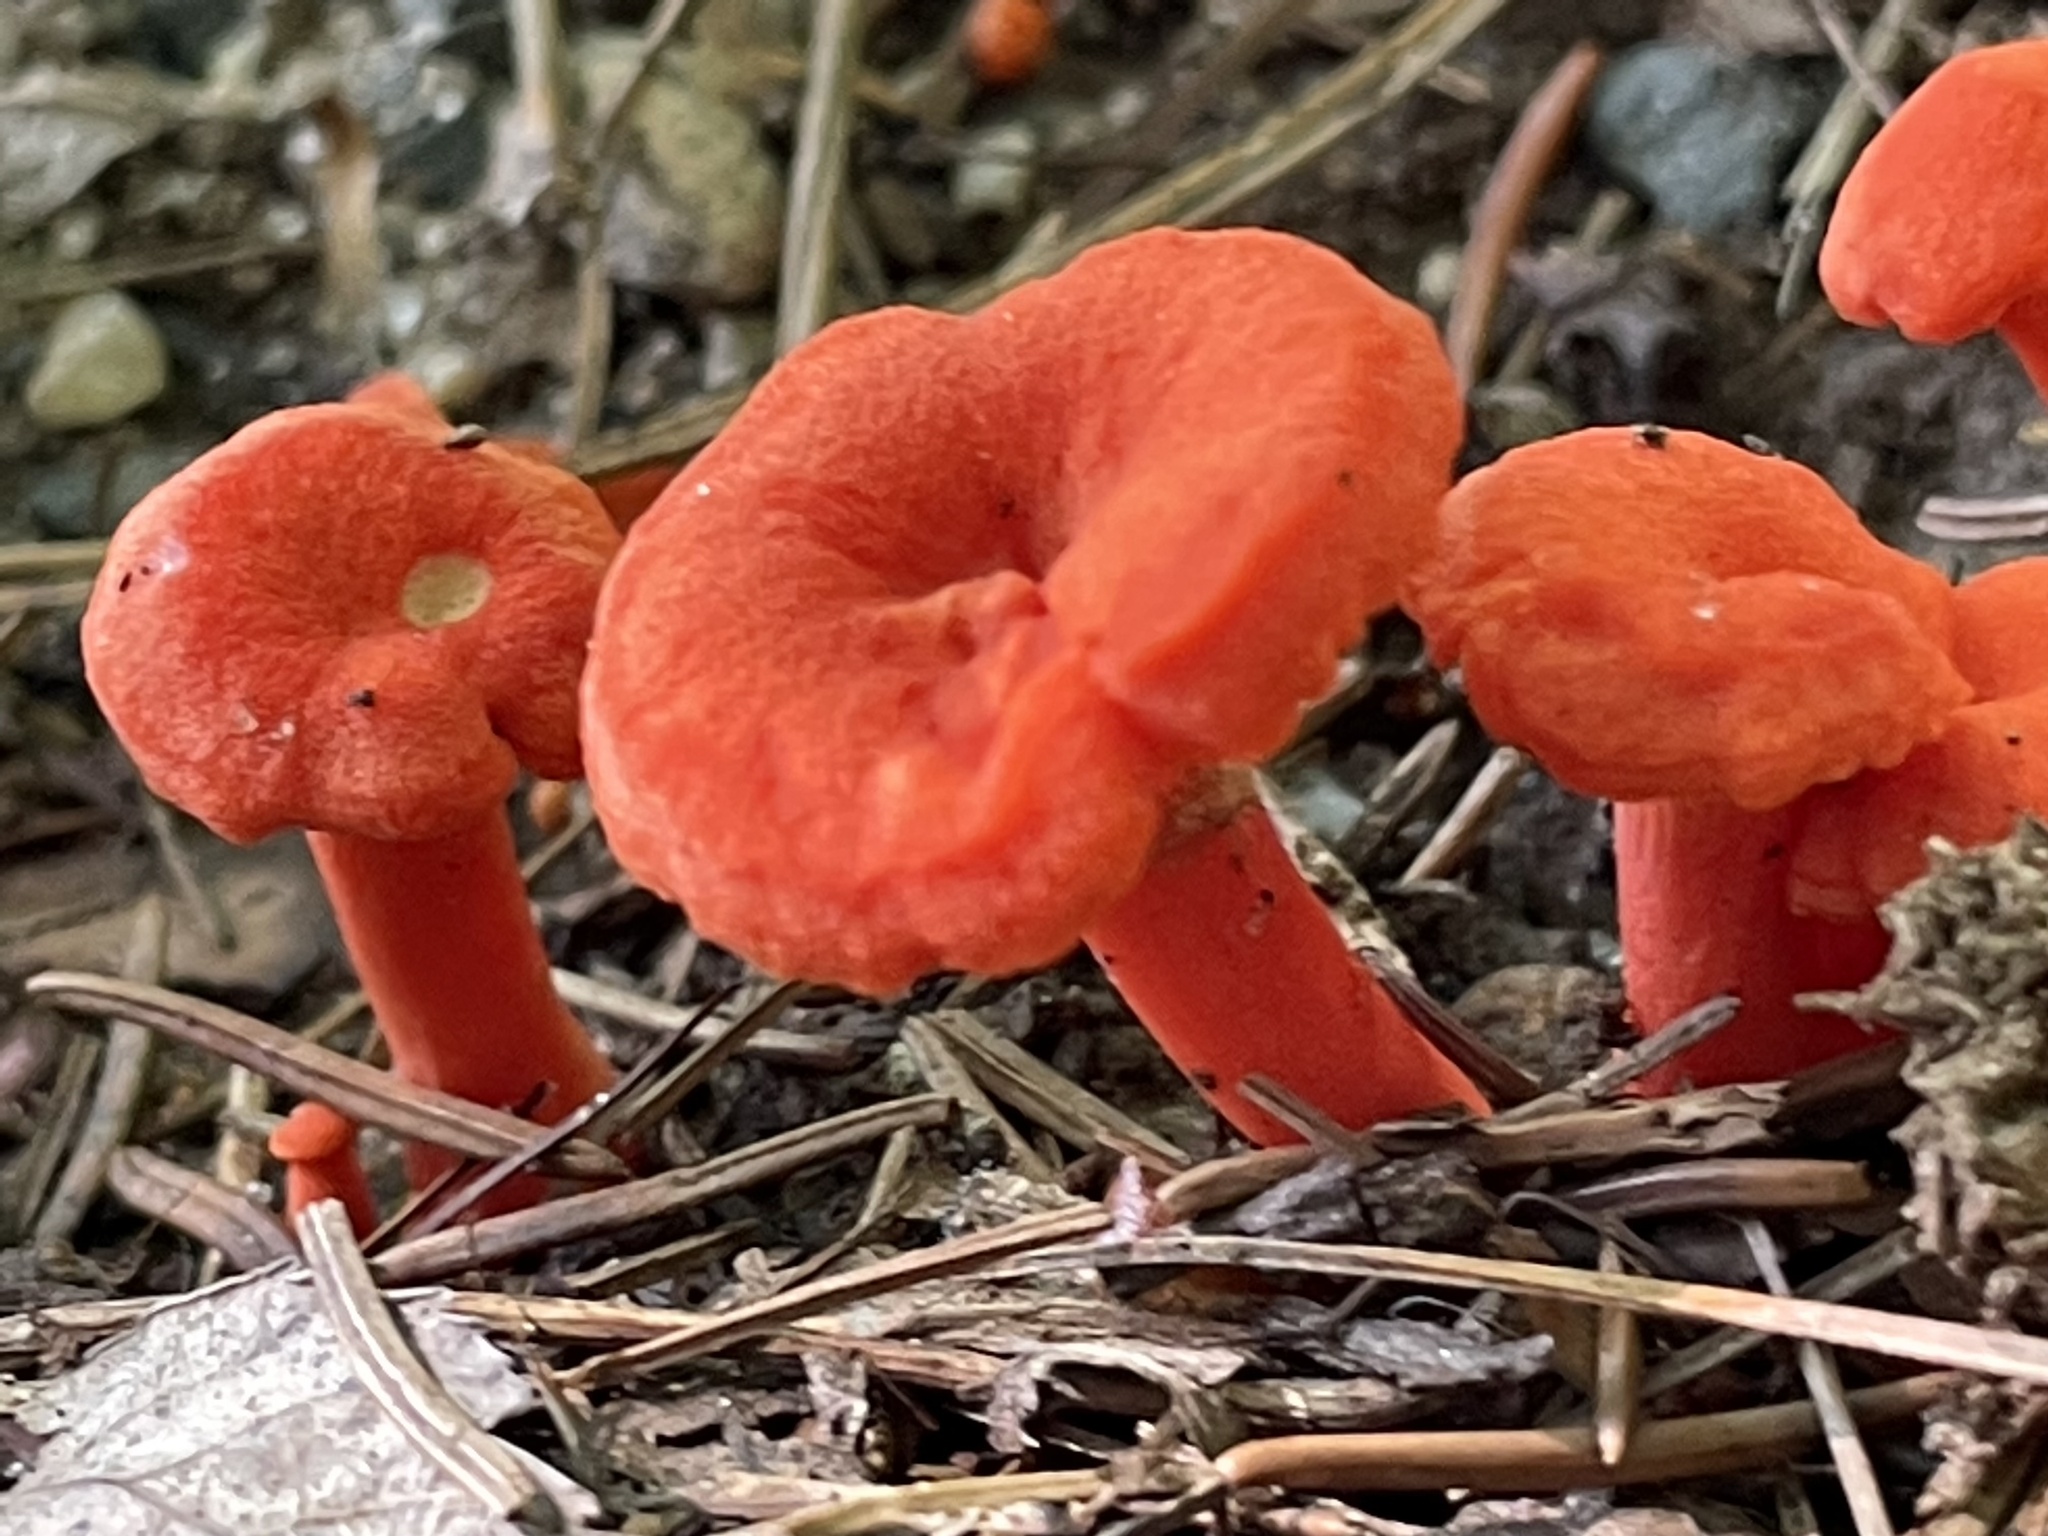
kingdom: Fungi
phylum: Basidiomycota
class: Agaricomycetes
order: Cantharellales
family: Hydnaceae
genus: Cantharellus
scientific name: Cantharellus cinnabarinus
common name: Cinnabar chanterelle
